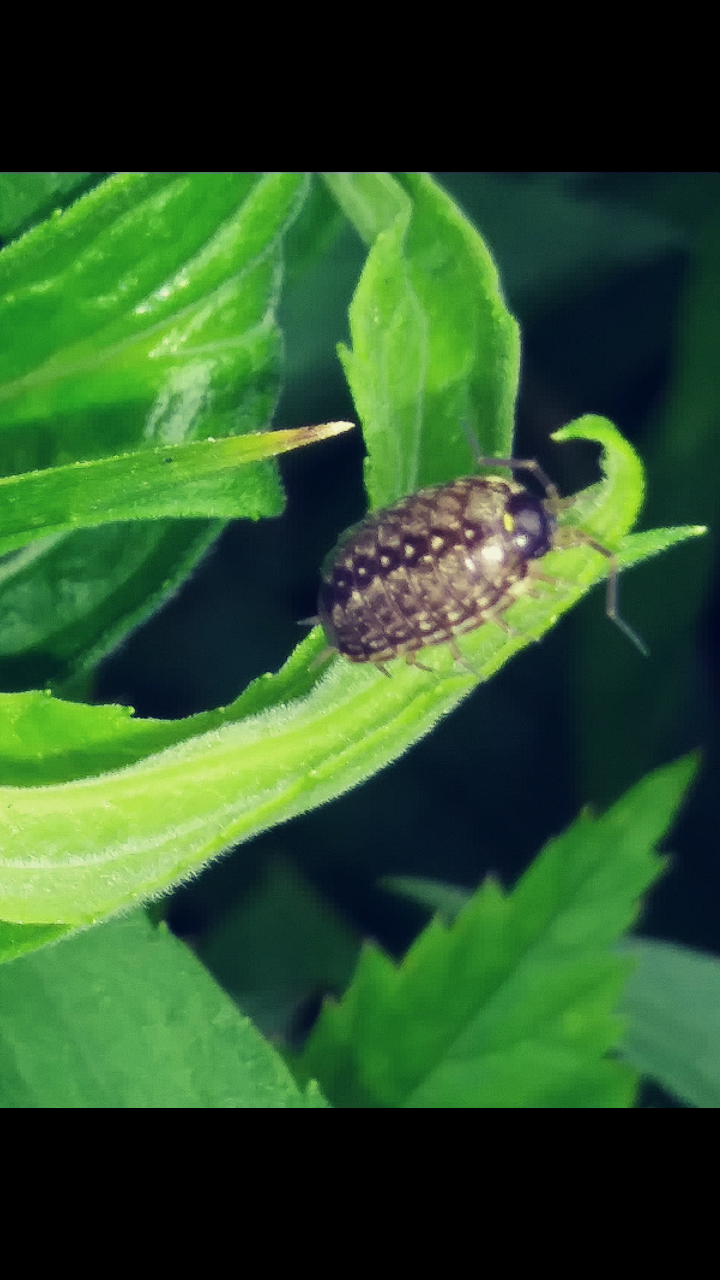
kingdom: Animalia
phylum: Arthropoda
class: Malacostraca
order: Isopoda
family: Philosciidae
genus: Philoscia
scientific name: Philoscia muscorum
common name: Common striped woodlouse
